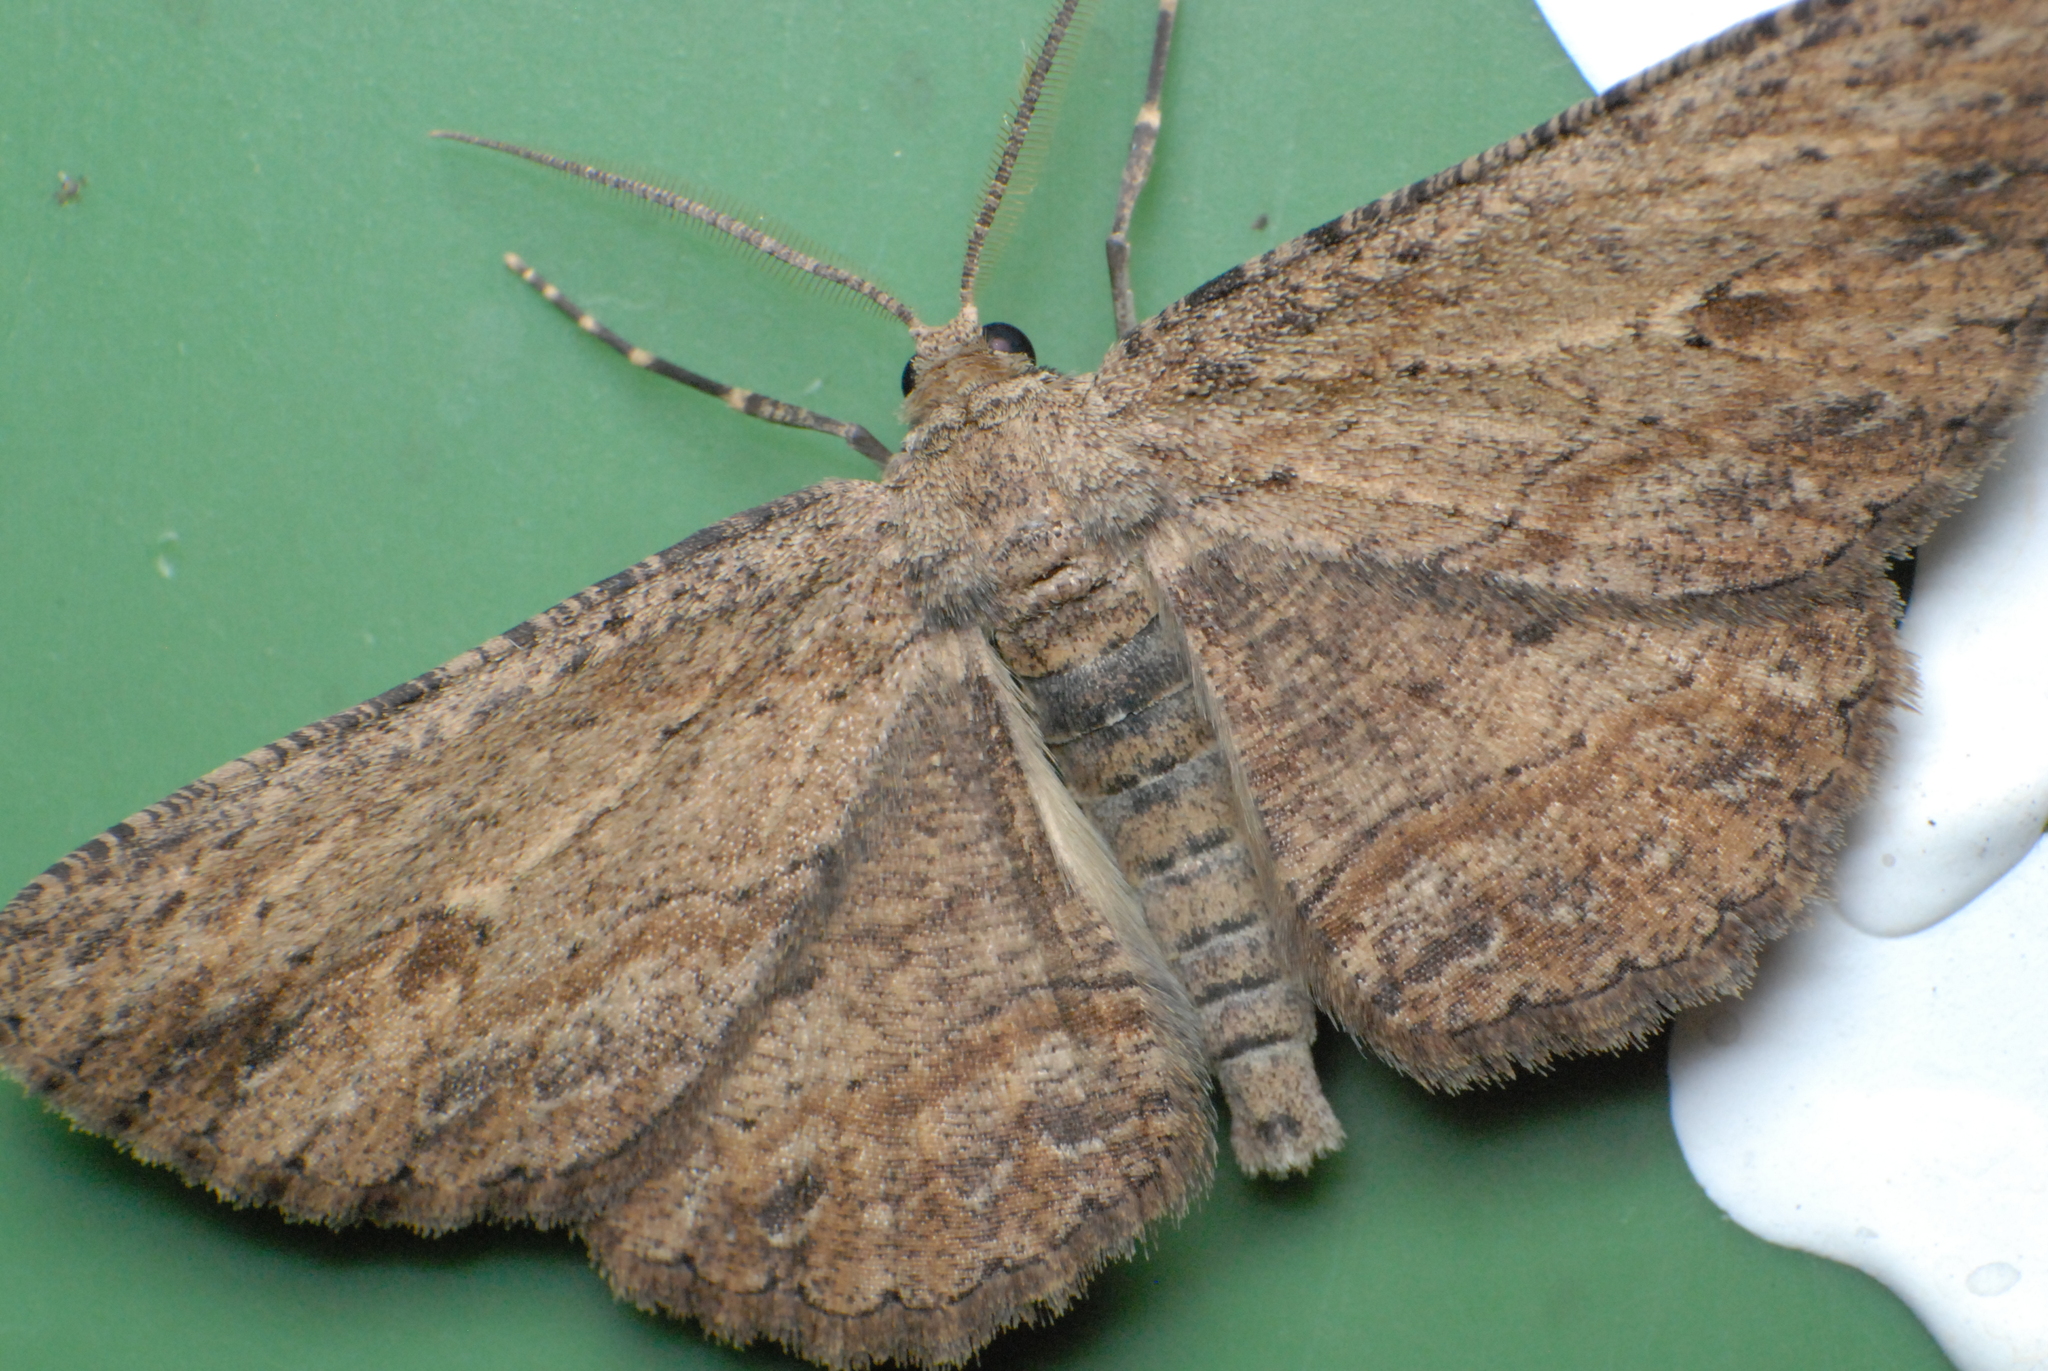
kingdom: Animalia
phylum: Arthropoda
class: Insecta
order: Lepidoptera
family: Geometridae
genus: Ectropis
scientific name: Ectropis excursaria
